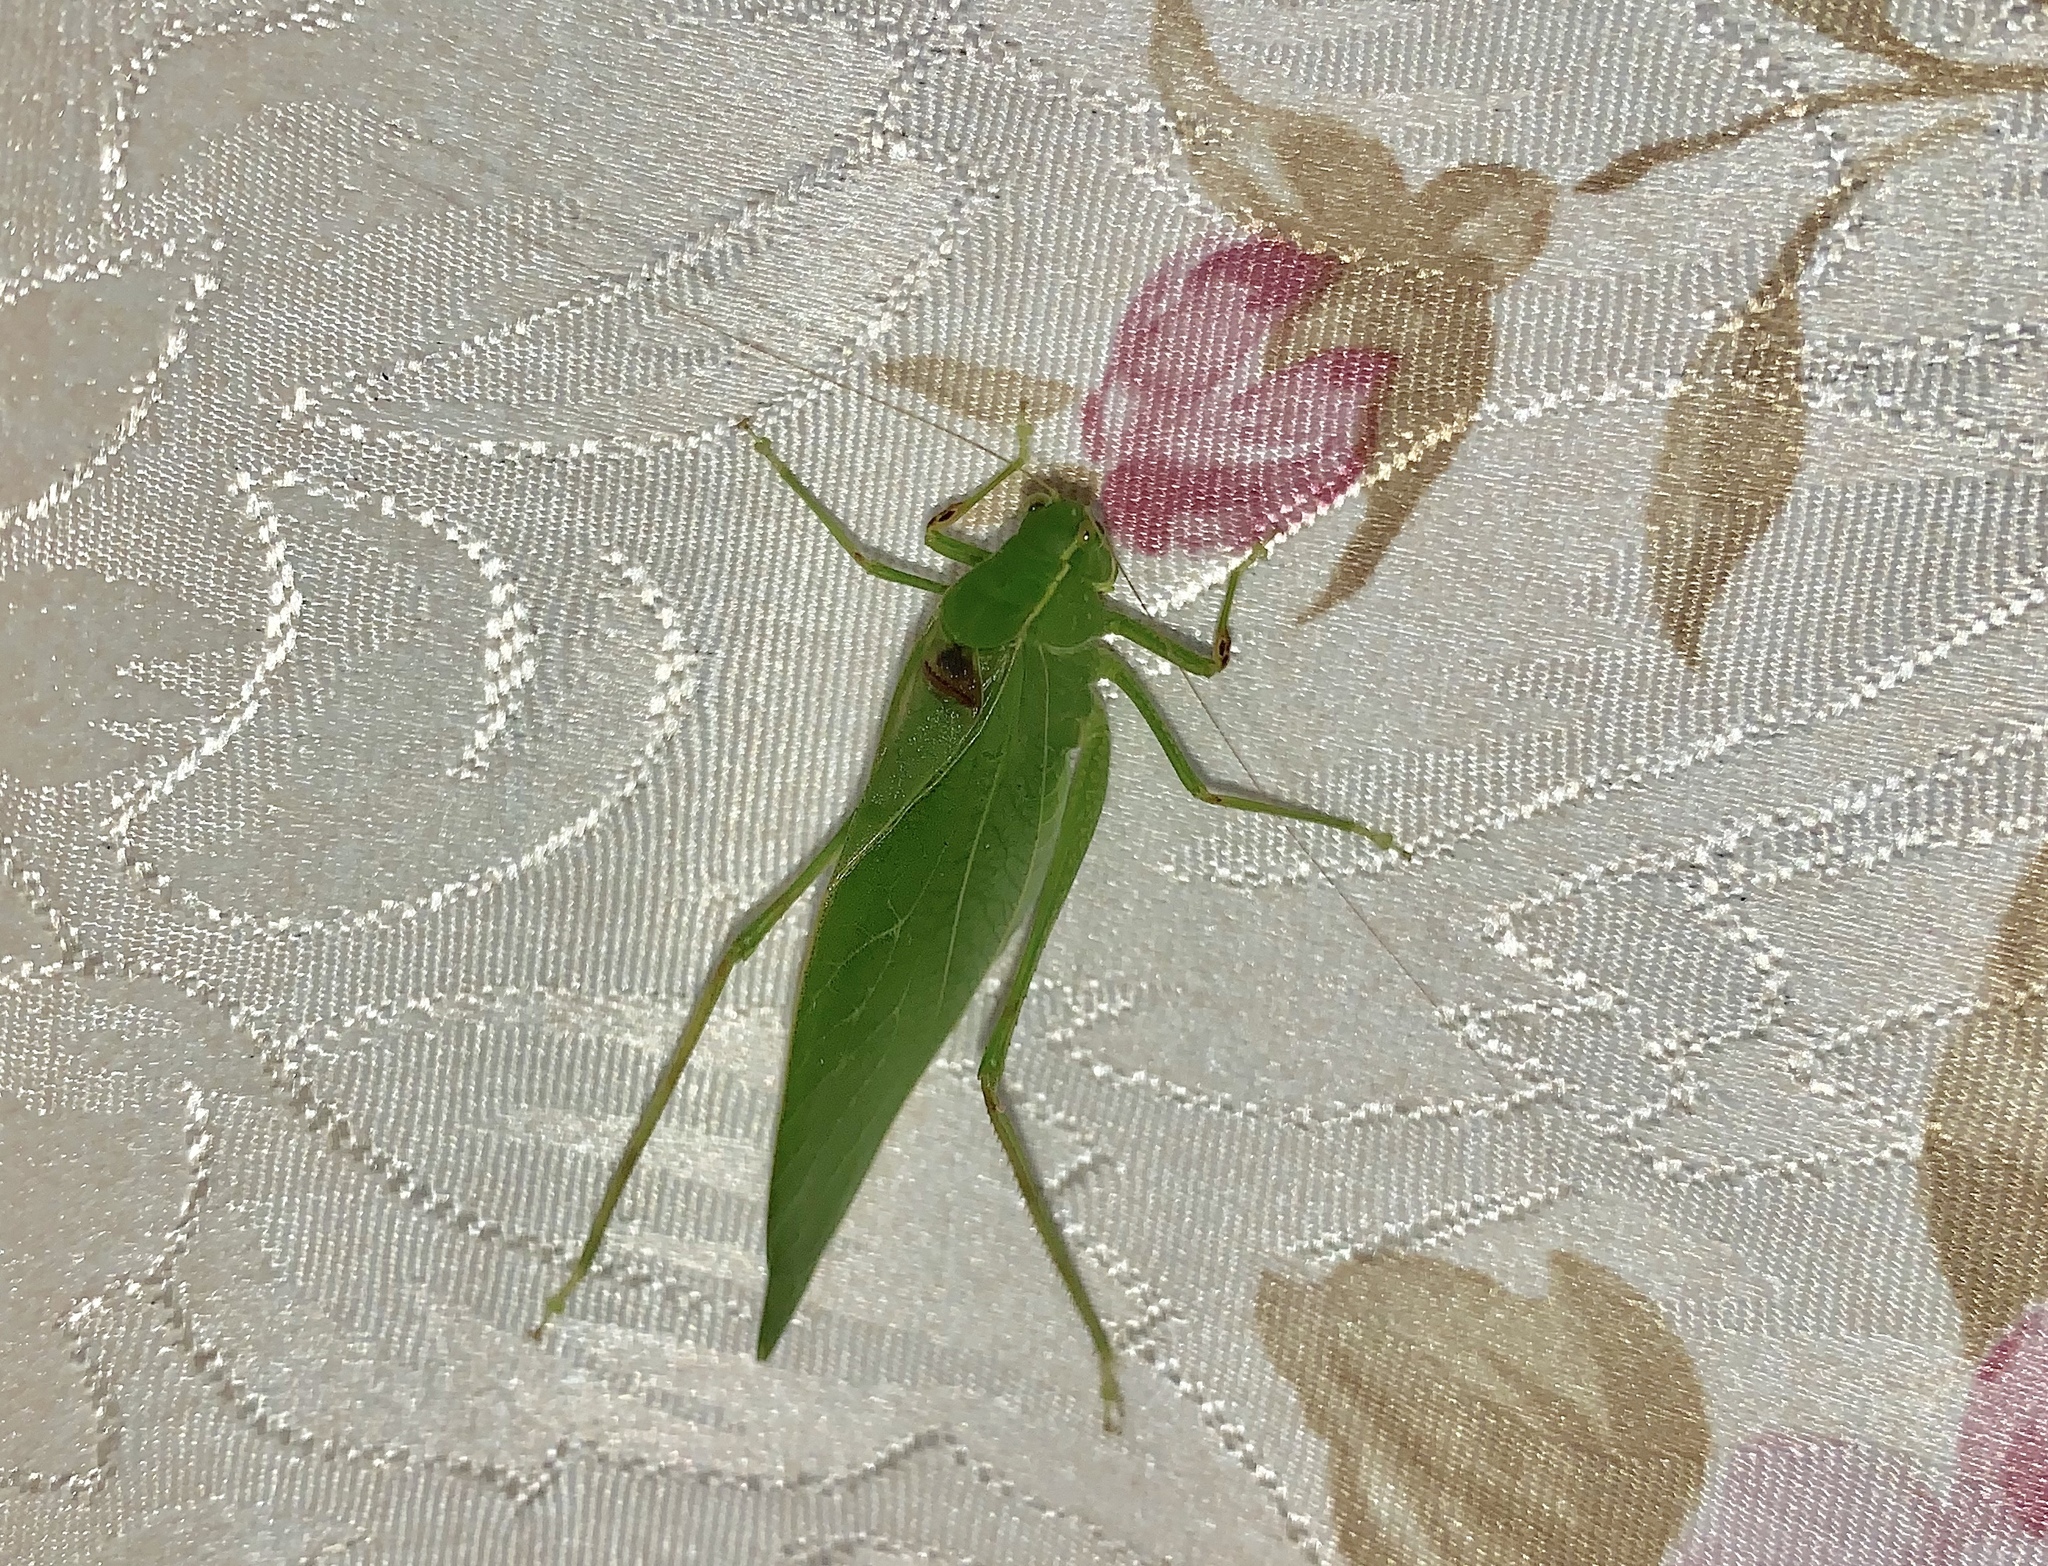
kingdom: Animalia
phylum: Arthropoda
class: Insecta
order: Orthoptera
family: Tettigoniidae
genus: Microcentrum
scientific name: Microcentrum retinerve
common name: Angular-winged katydid
